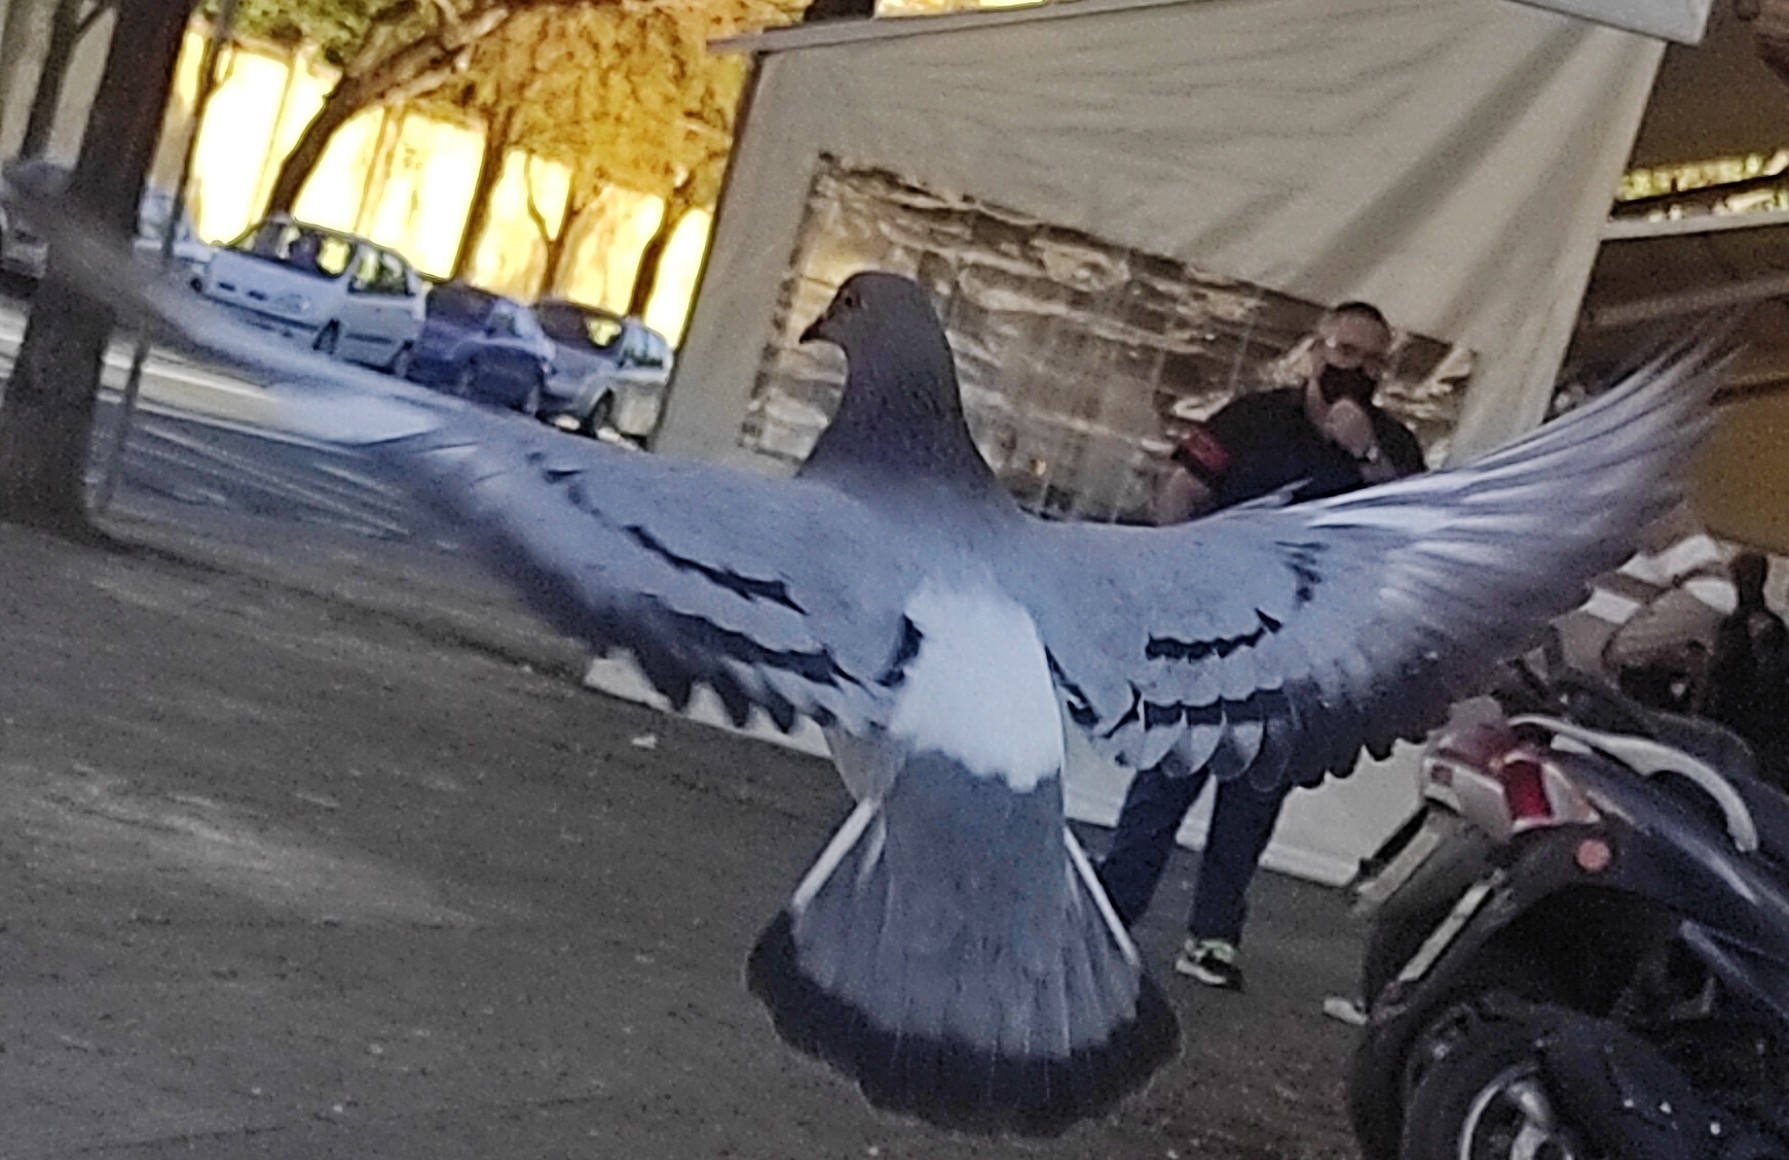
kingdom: Animalia
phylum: Chordata
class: Aves
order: Columbiformes
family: Columbidae
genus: Columba
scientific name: Columba livia
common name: Rock pigeon
